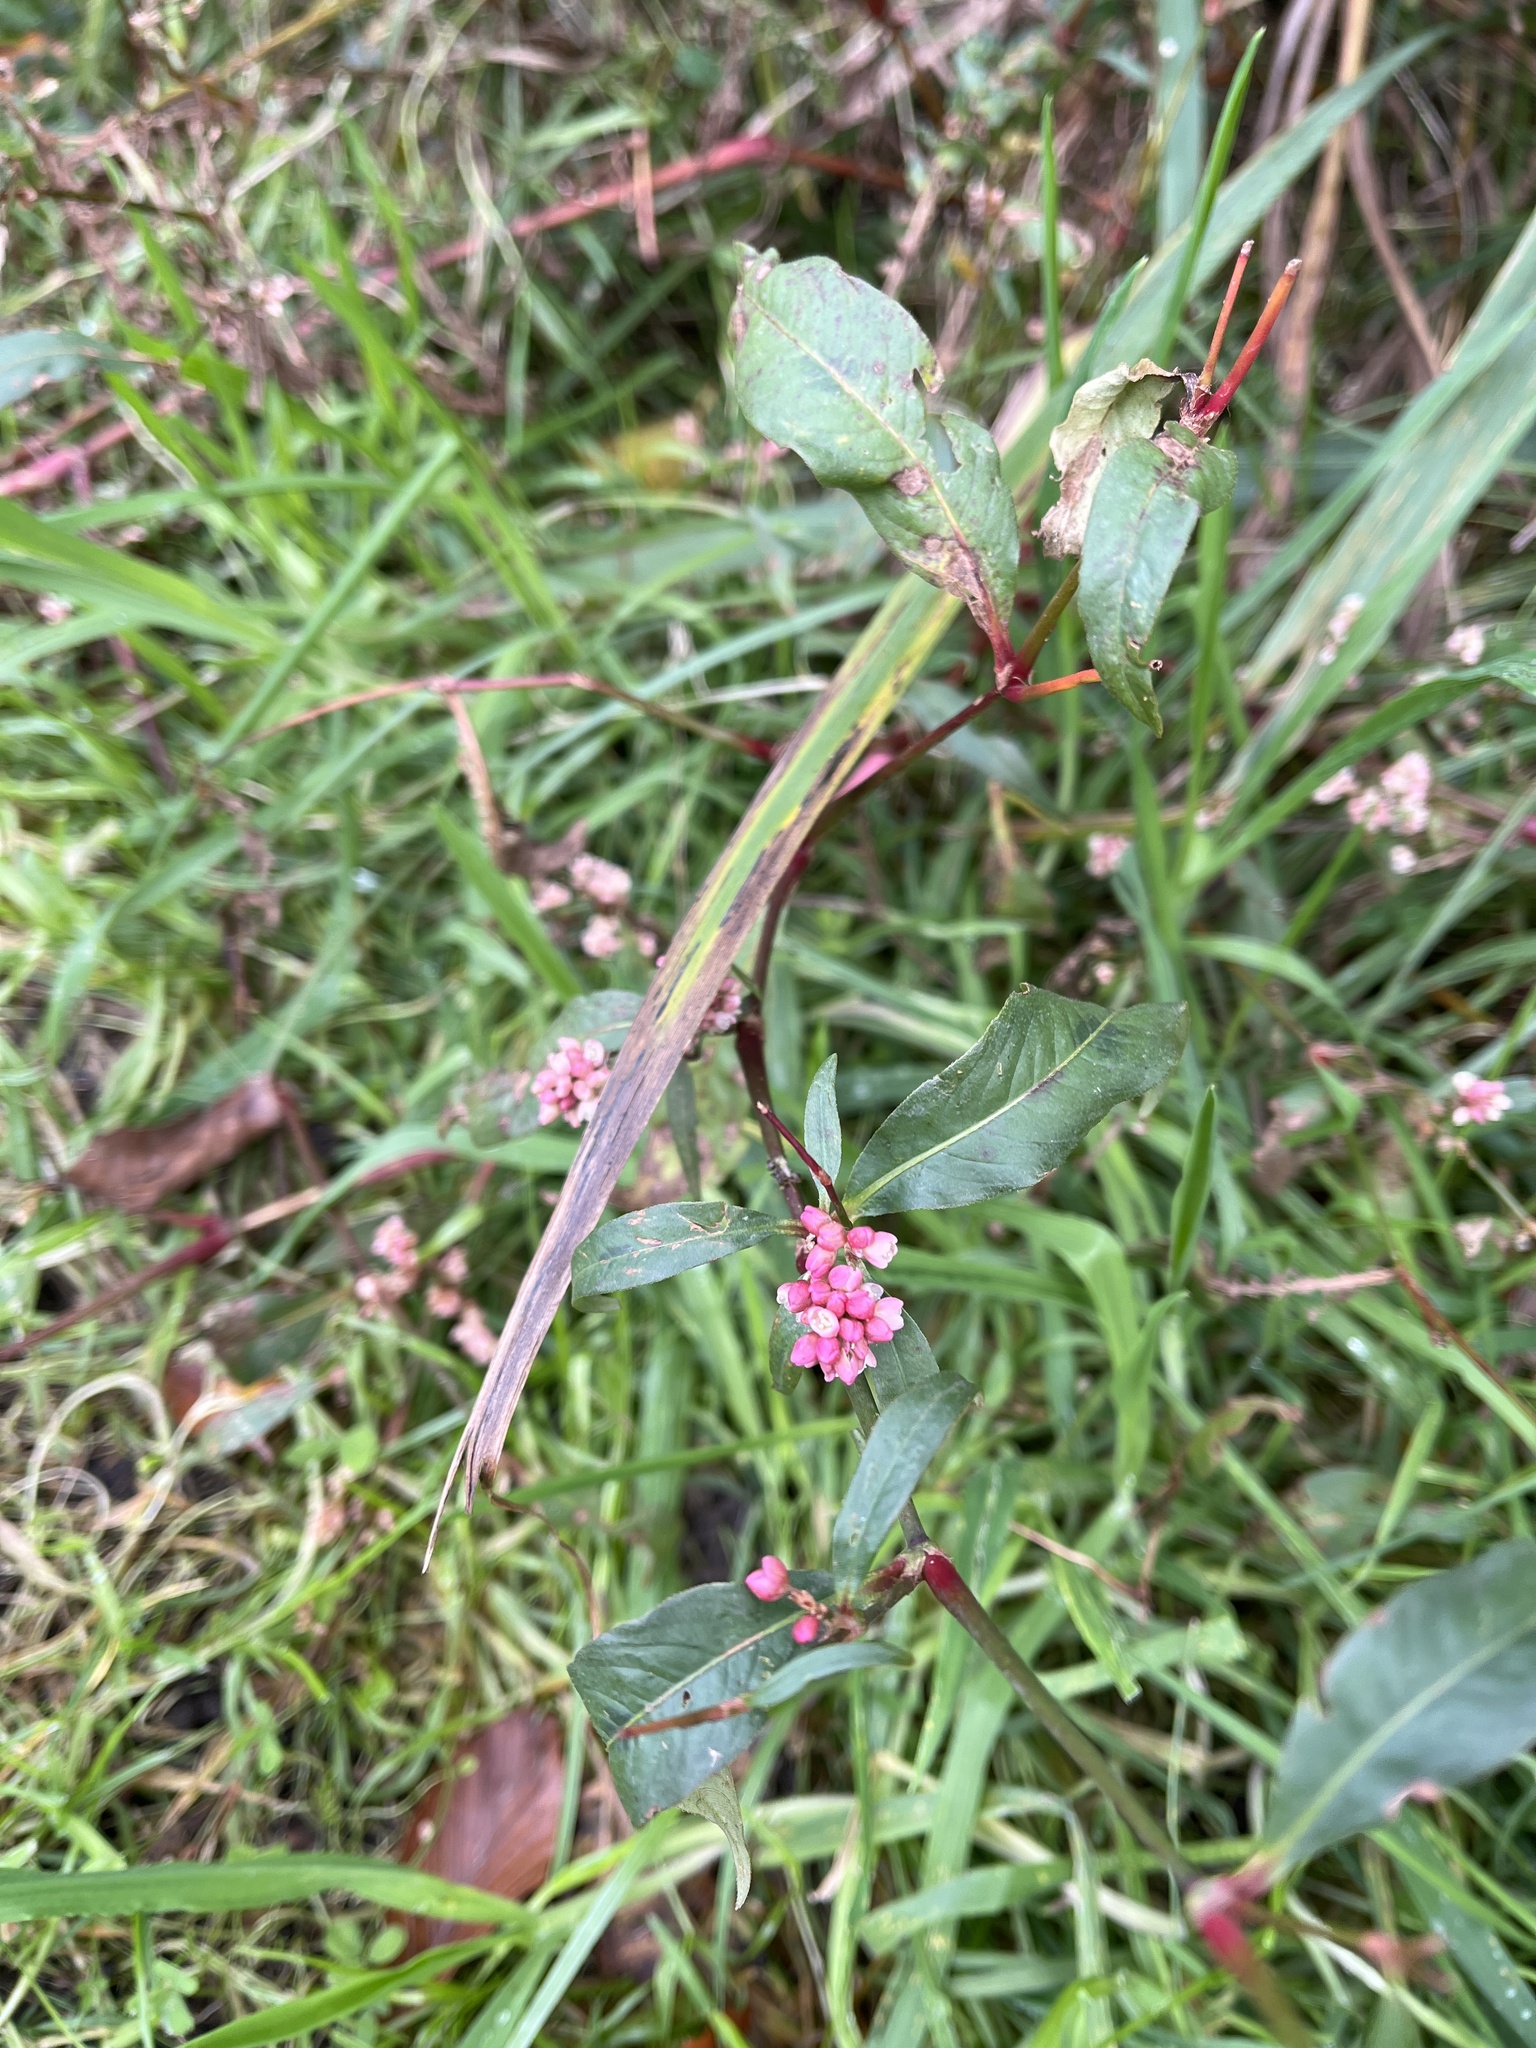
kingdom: Plantae
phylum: Tracheophyta
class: Magnoliopsida
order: Caryophyllales
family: Polygonaceae
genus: Persicaria
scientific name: Persicaria maculosa
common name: Redshank
